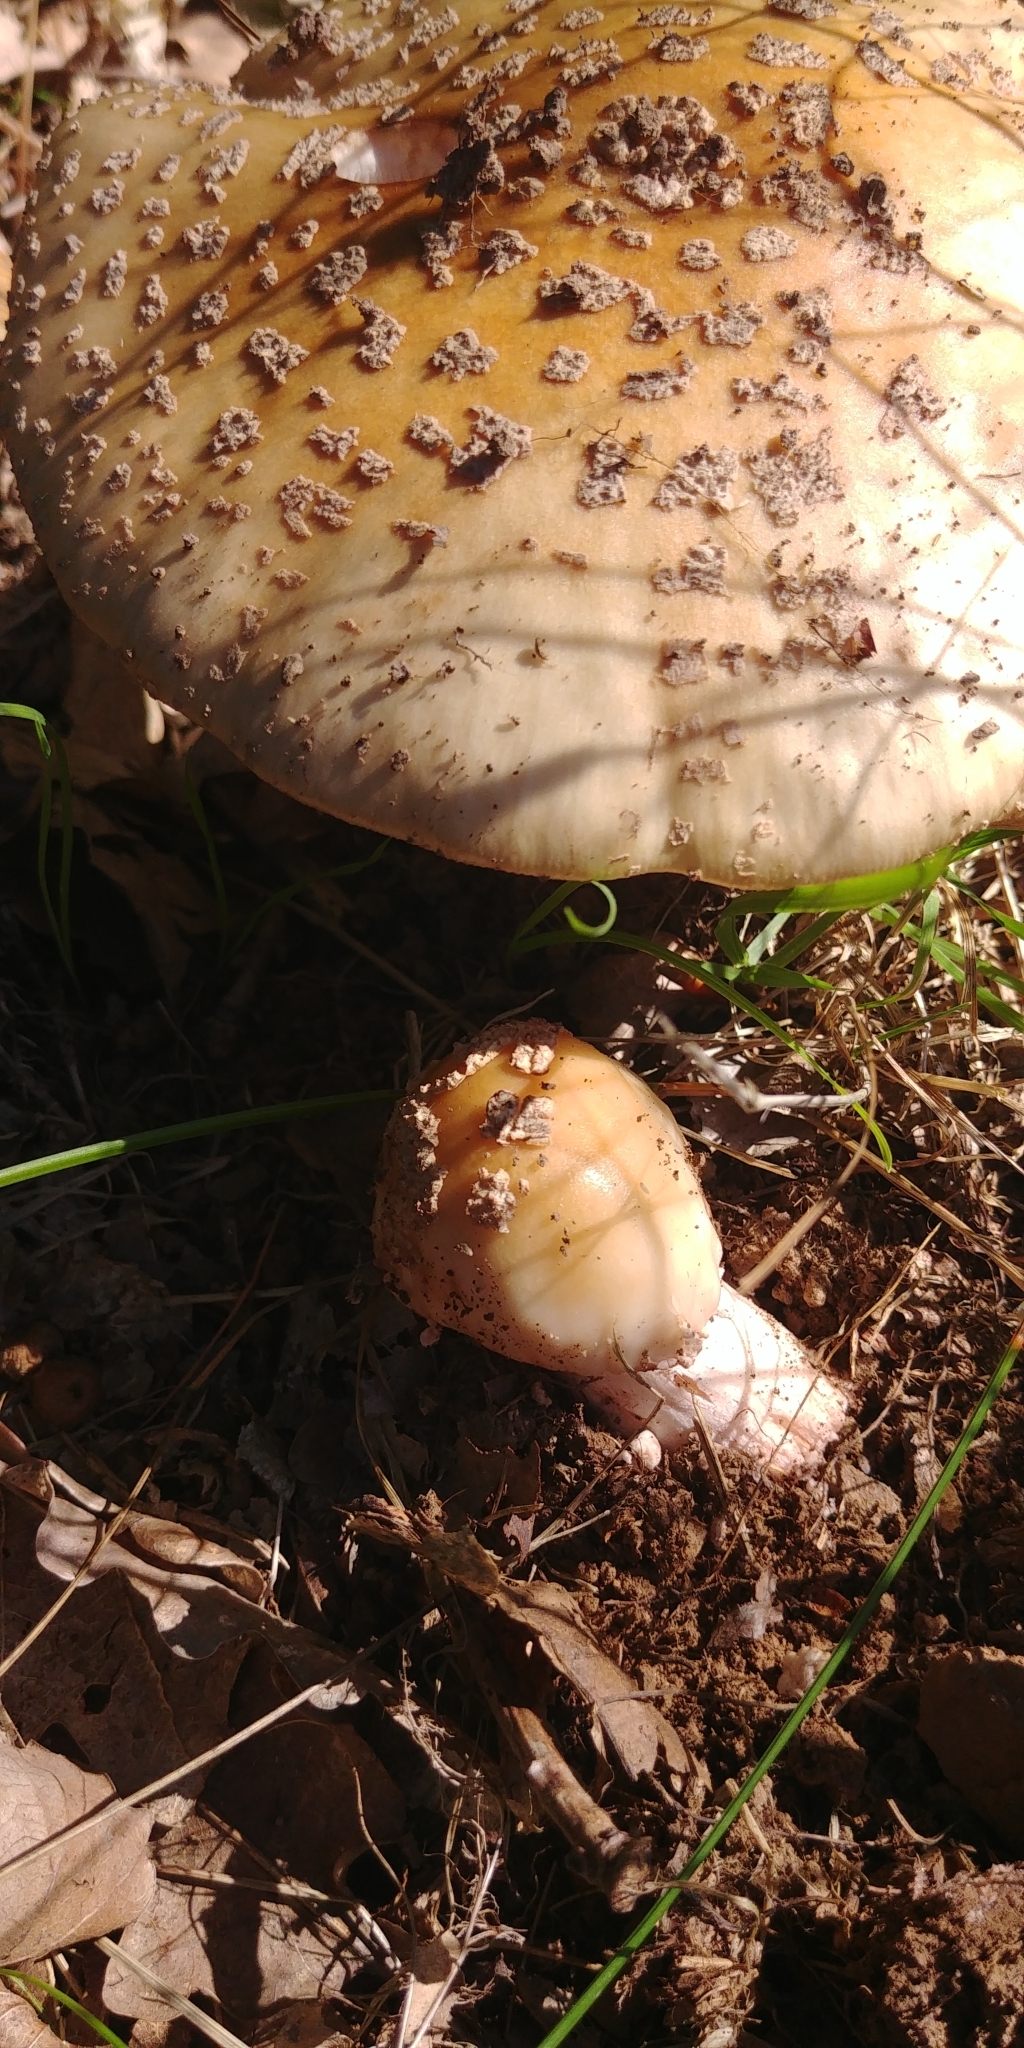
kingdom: Fungi
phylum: Basidiomycota
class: Agaricomycetes
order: Agaricales
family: Amanitaceae
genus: Amanita
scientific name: Amanita rubescens
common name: Blusher
